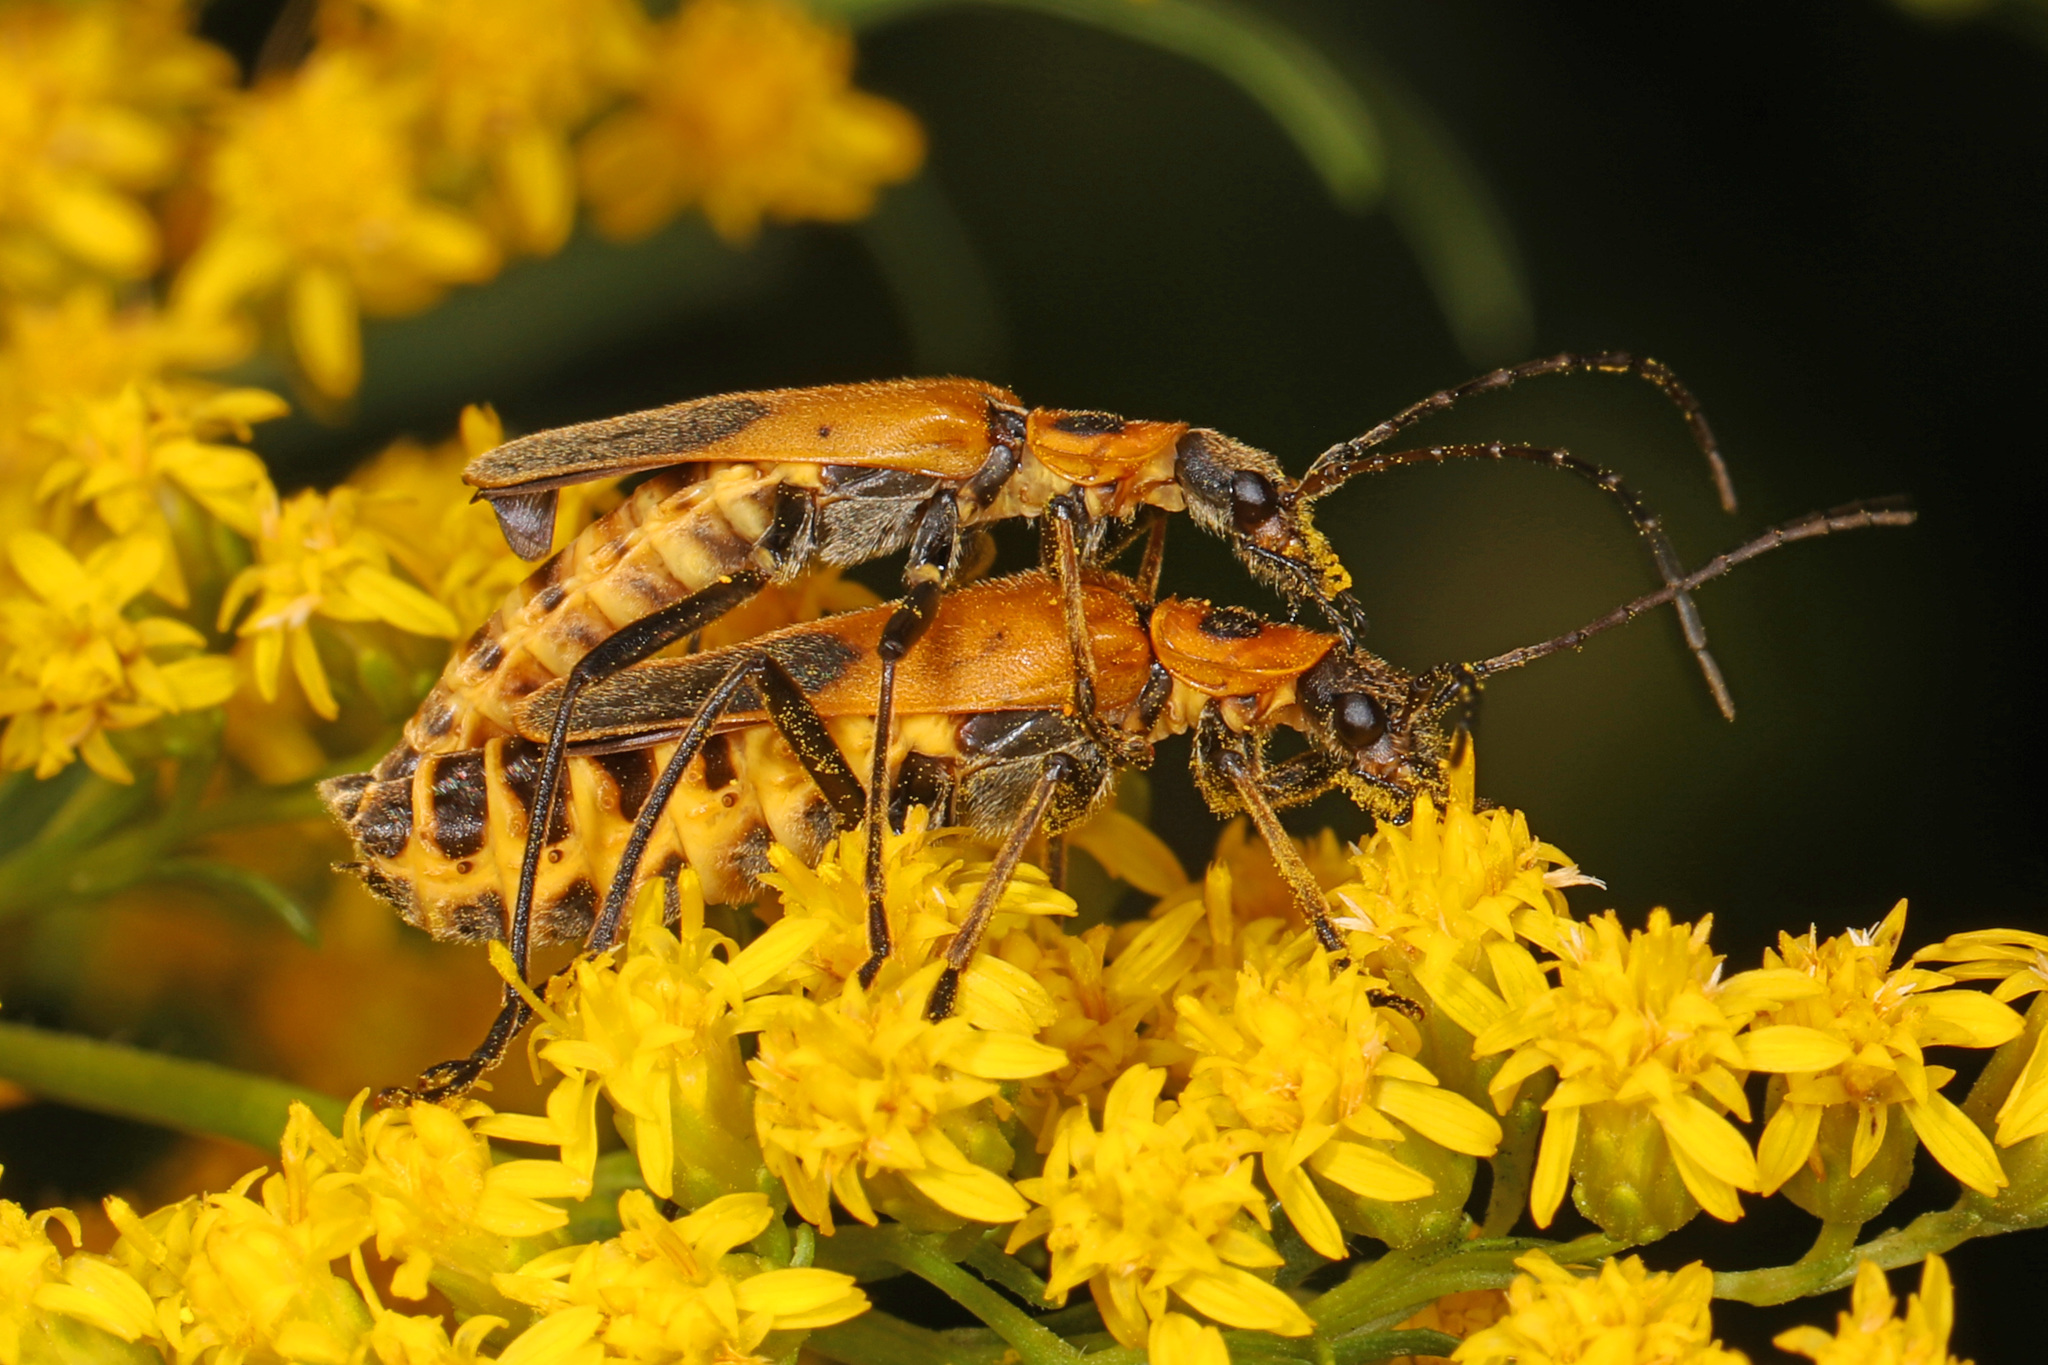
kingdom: Animalia
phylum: Arthropoda
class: Insecta
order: Coleoptera
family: Cantharidae
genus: Chauliognathus
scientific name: Chauliognathus pensylvanicus
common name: Goldenrod soldier beetle
